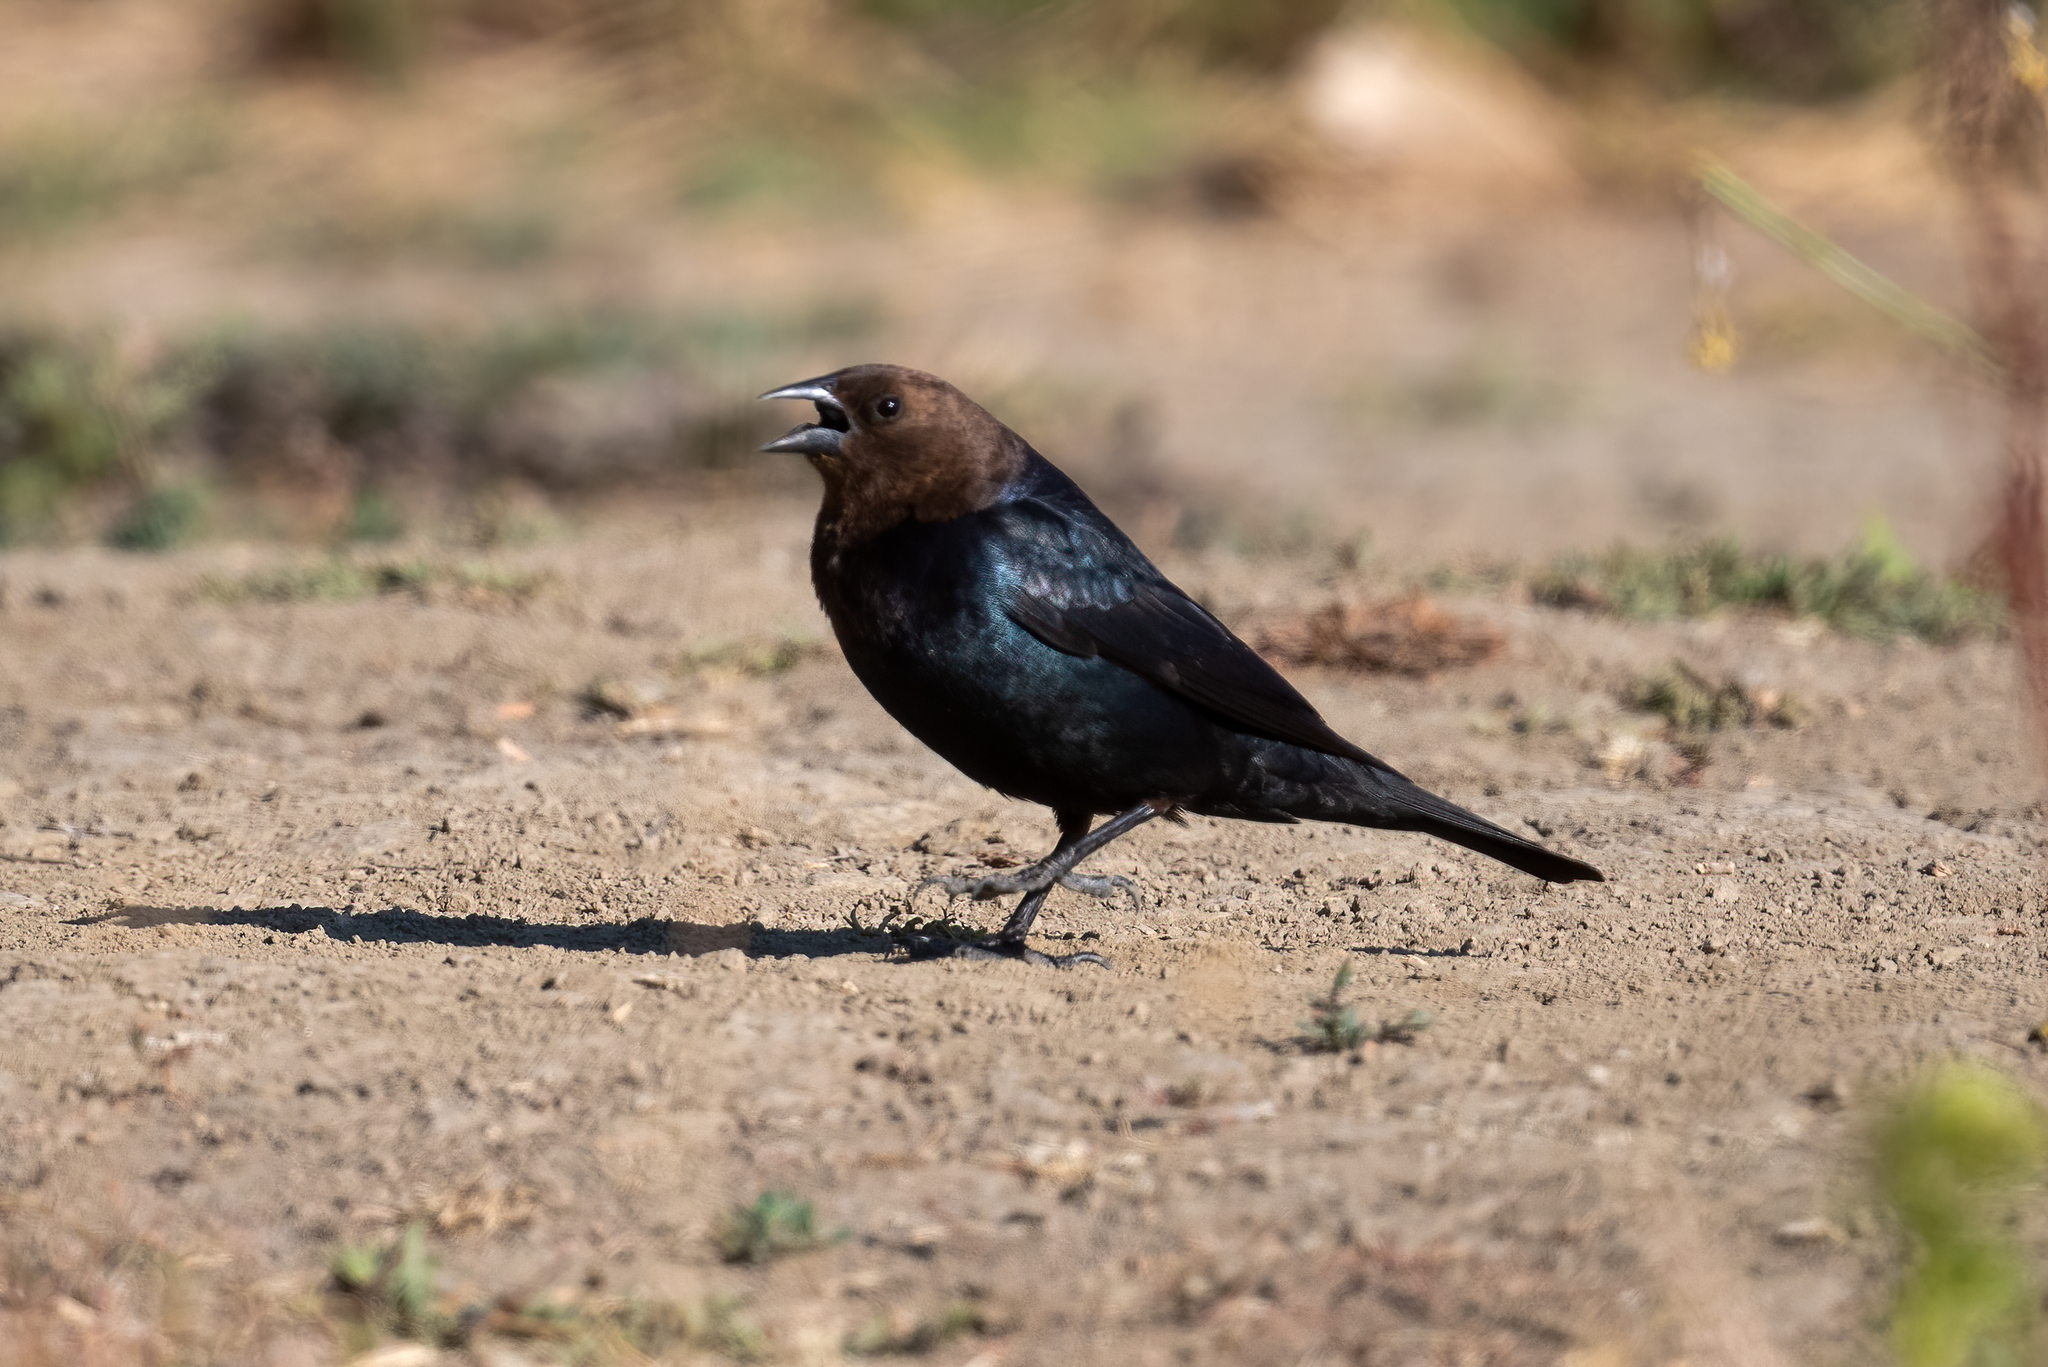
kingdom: Animalia
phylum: Chordata
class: Aves
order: Passeriformes
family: Icteridae
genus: Molothrus
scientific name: Molothrus ater
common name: Brown-headed cowbird
